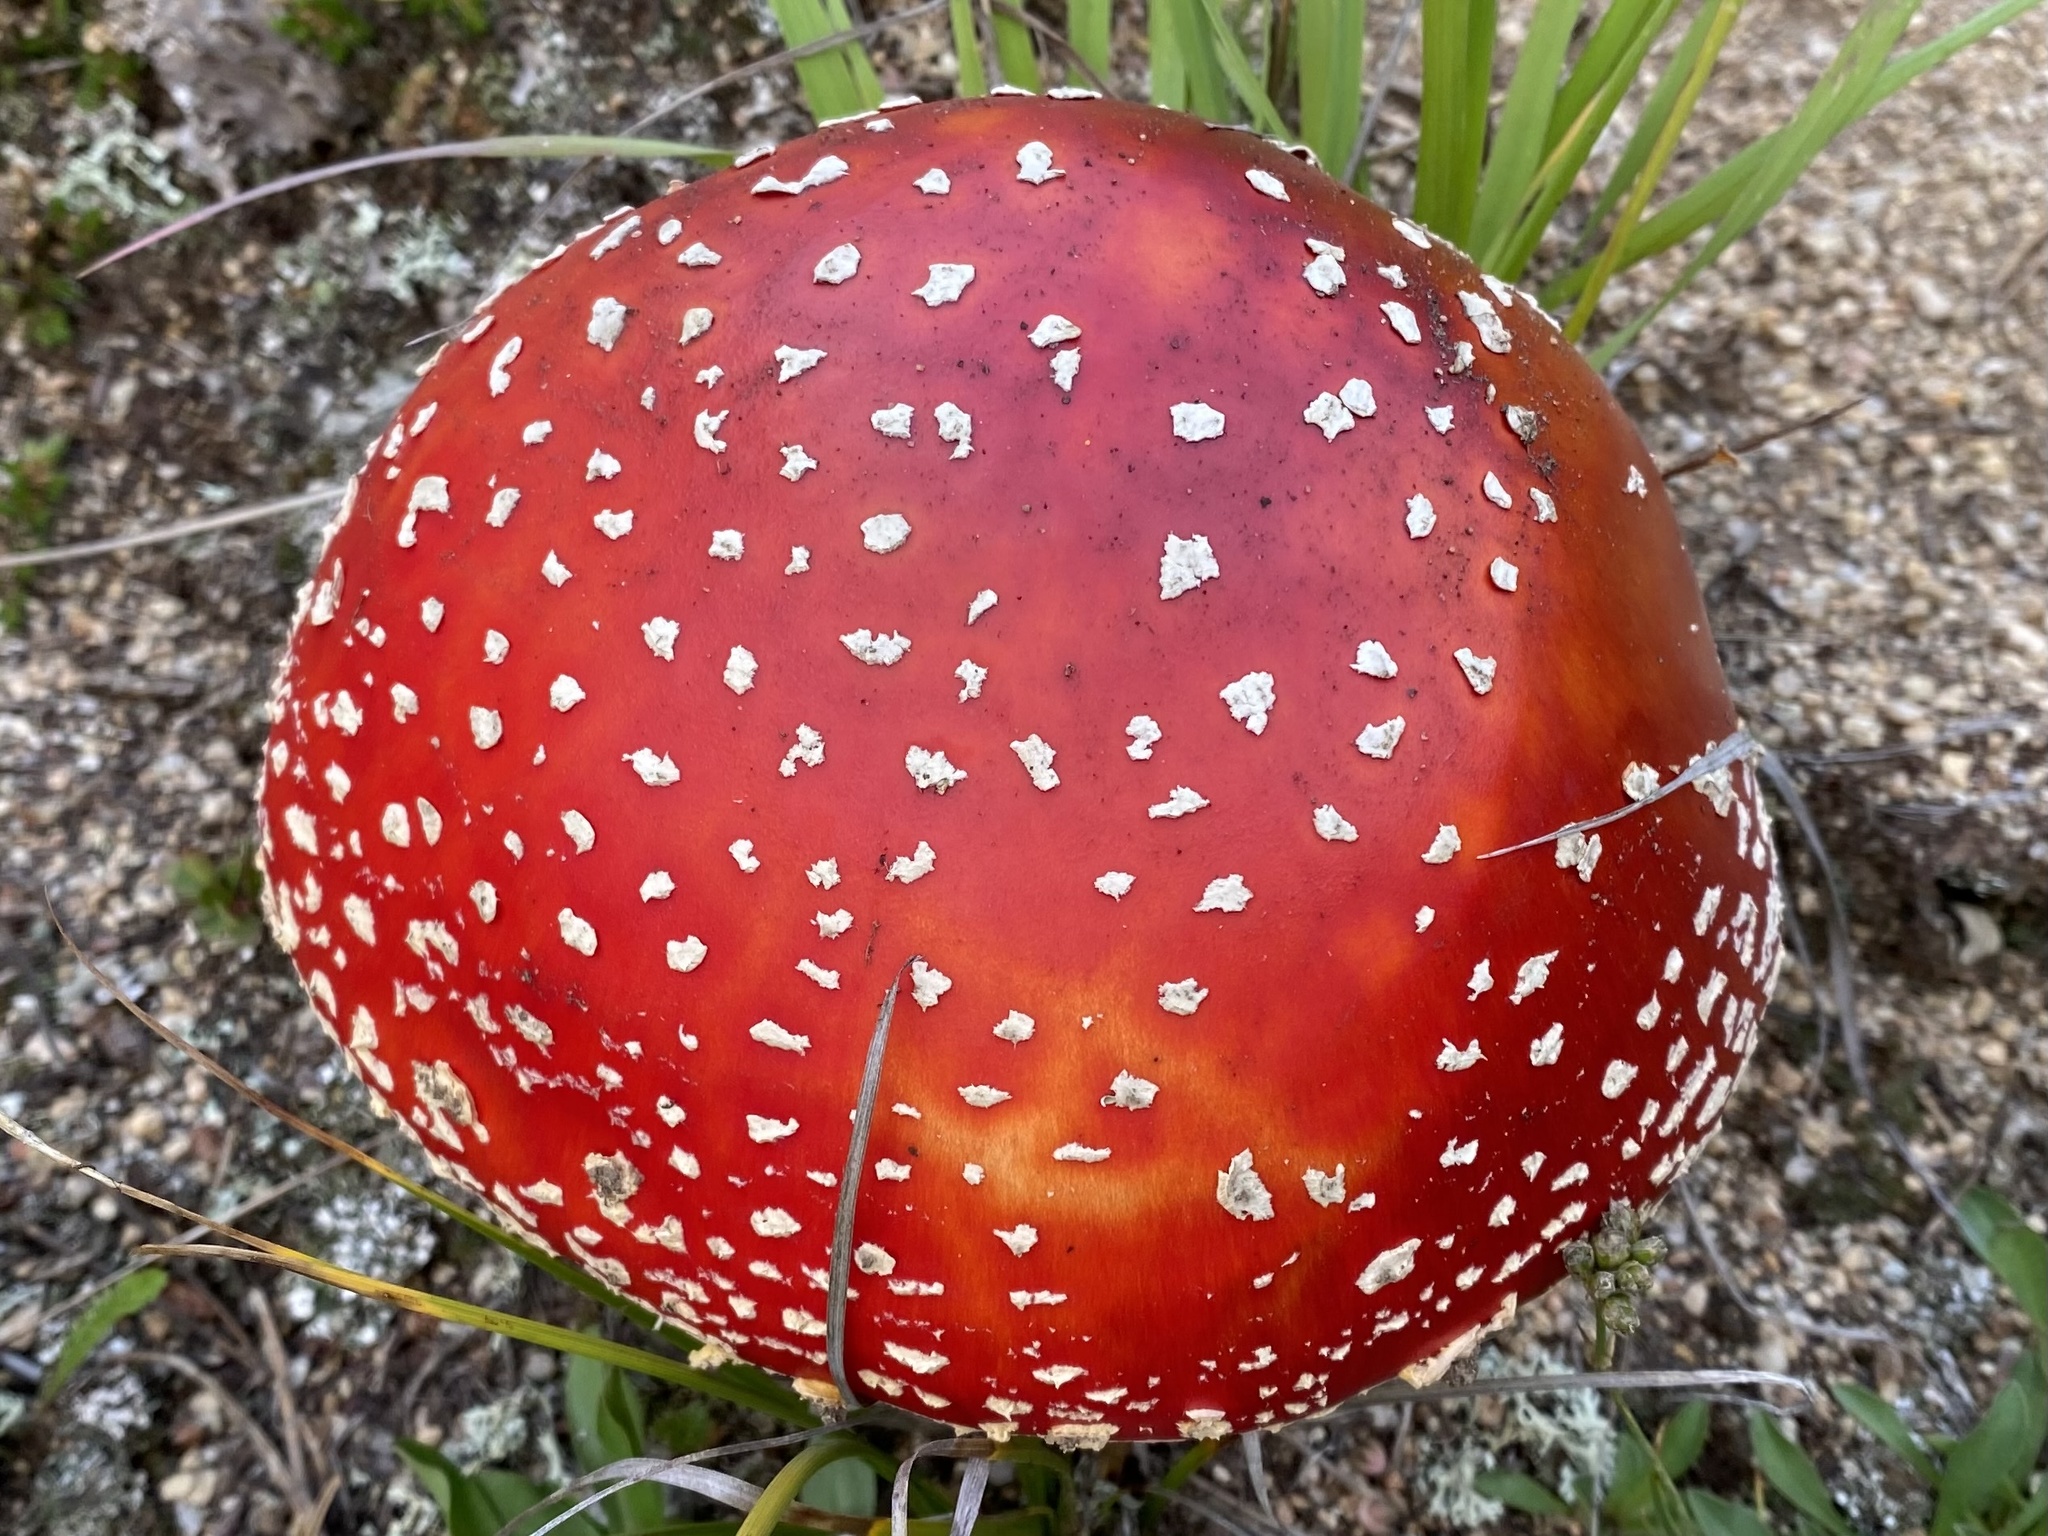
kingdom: Fungi
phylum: Basidiomycota
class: Agaricomycetes
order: Agaricales
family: Amanitaceae
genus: Amanita
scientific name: Amanita muscaria
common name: Fly agaric
